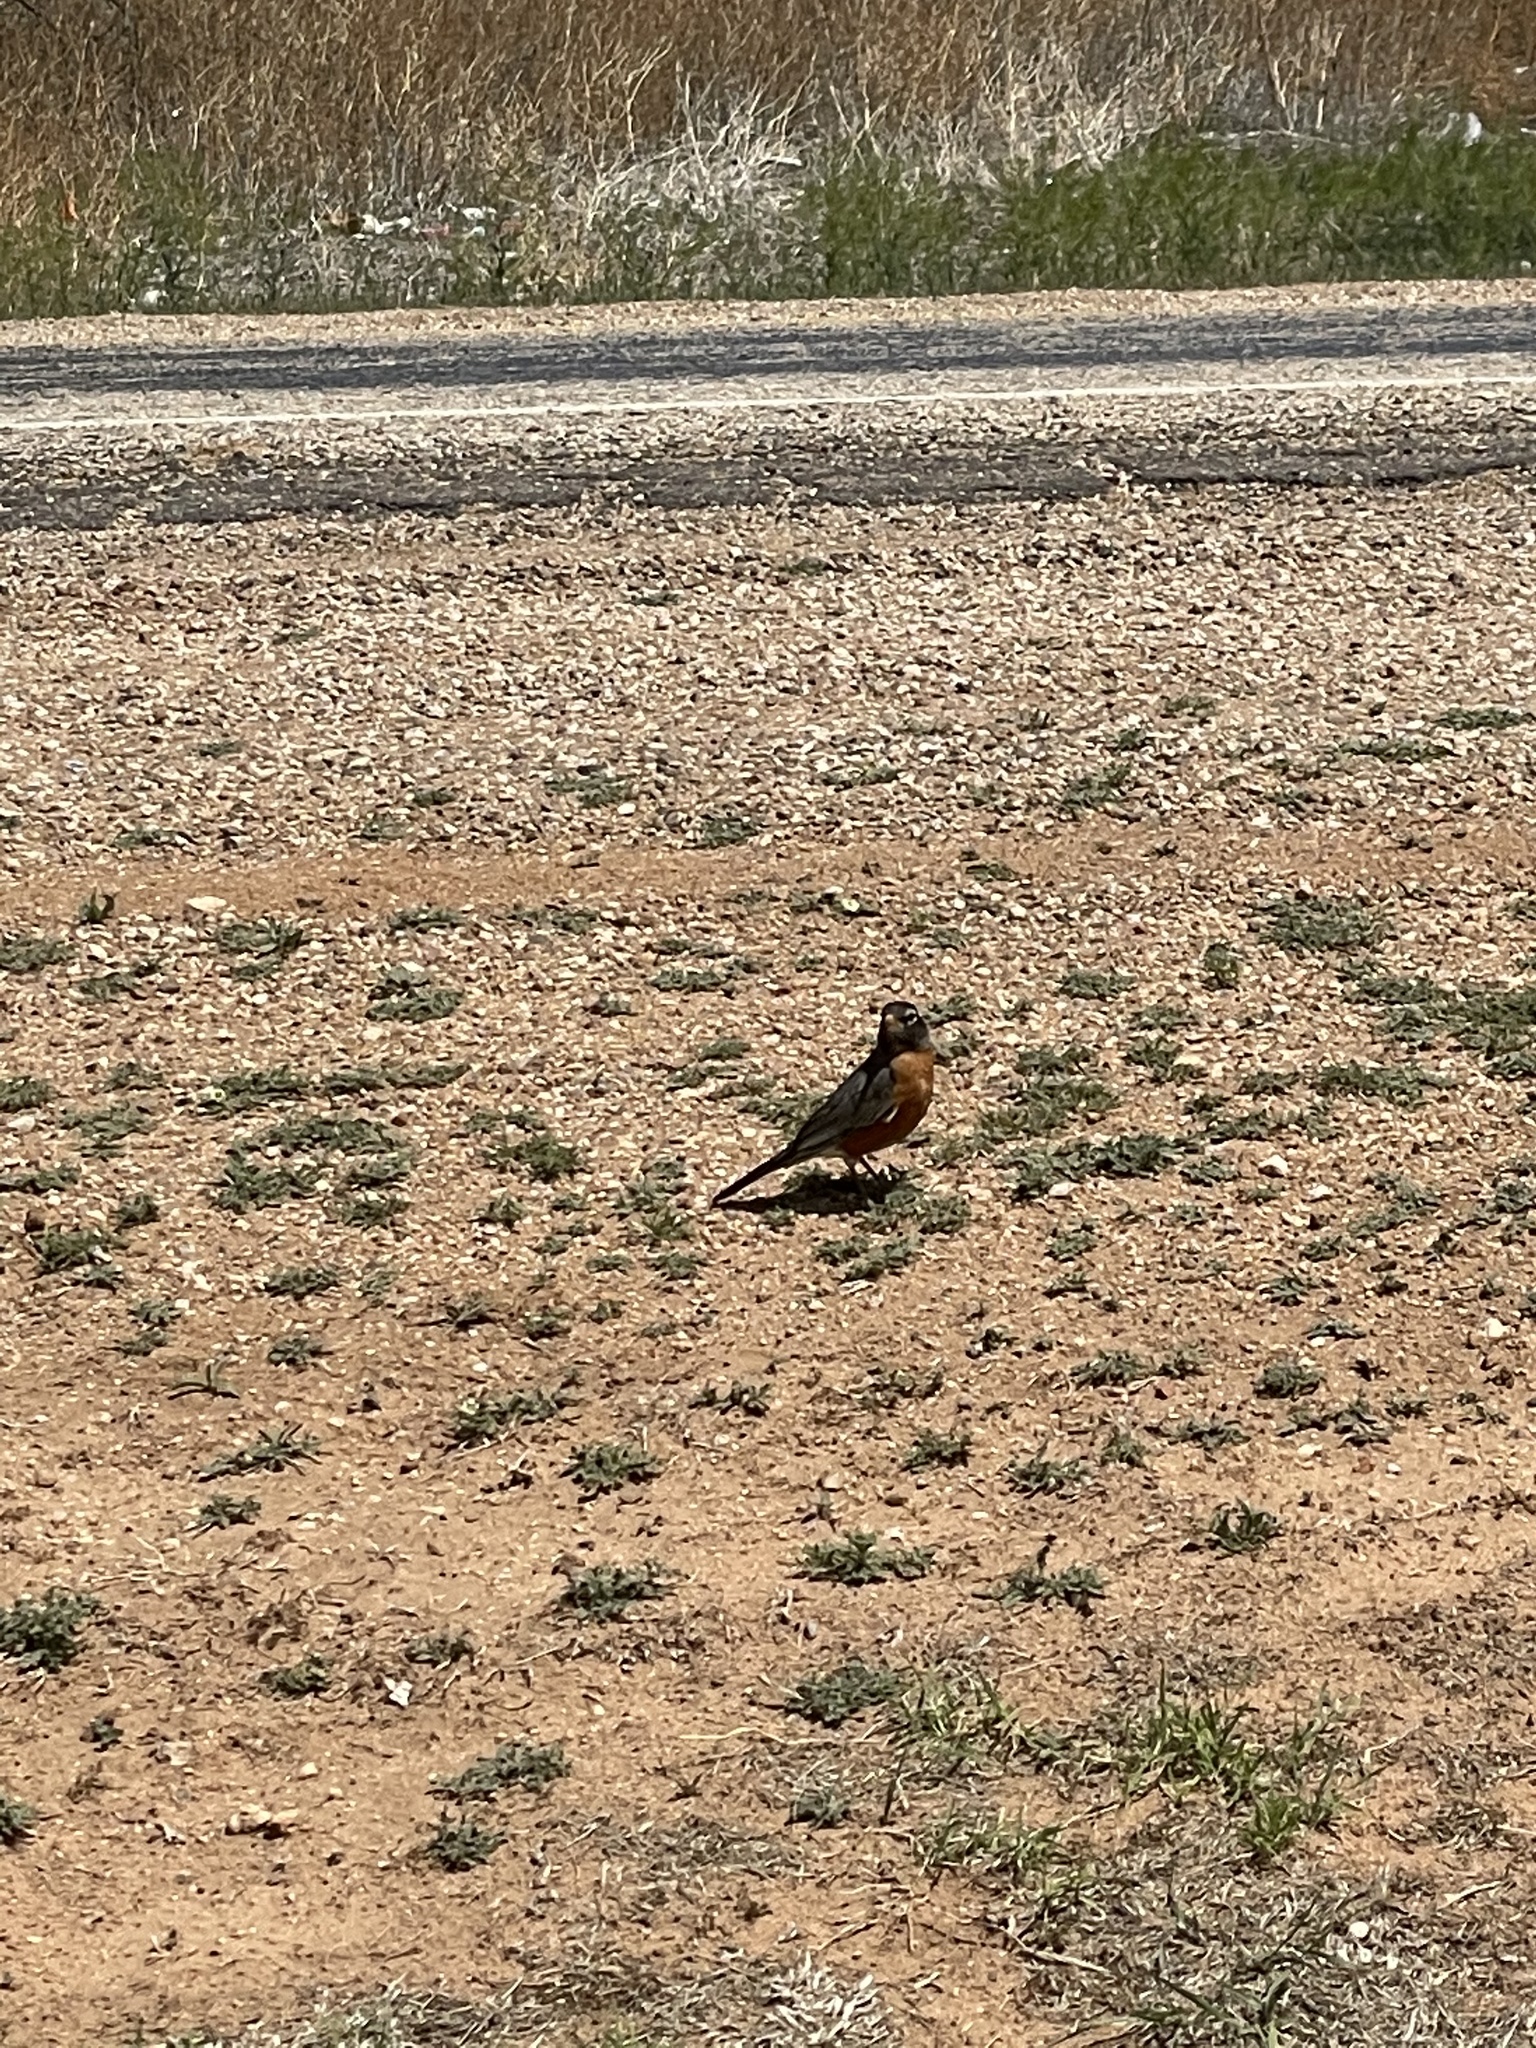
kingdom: Animalia
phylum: Chordata
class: Aves
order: Passeriformes
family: Turdidae
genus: Turdus
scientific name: Turdus migratorius
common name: American robin
